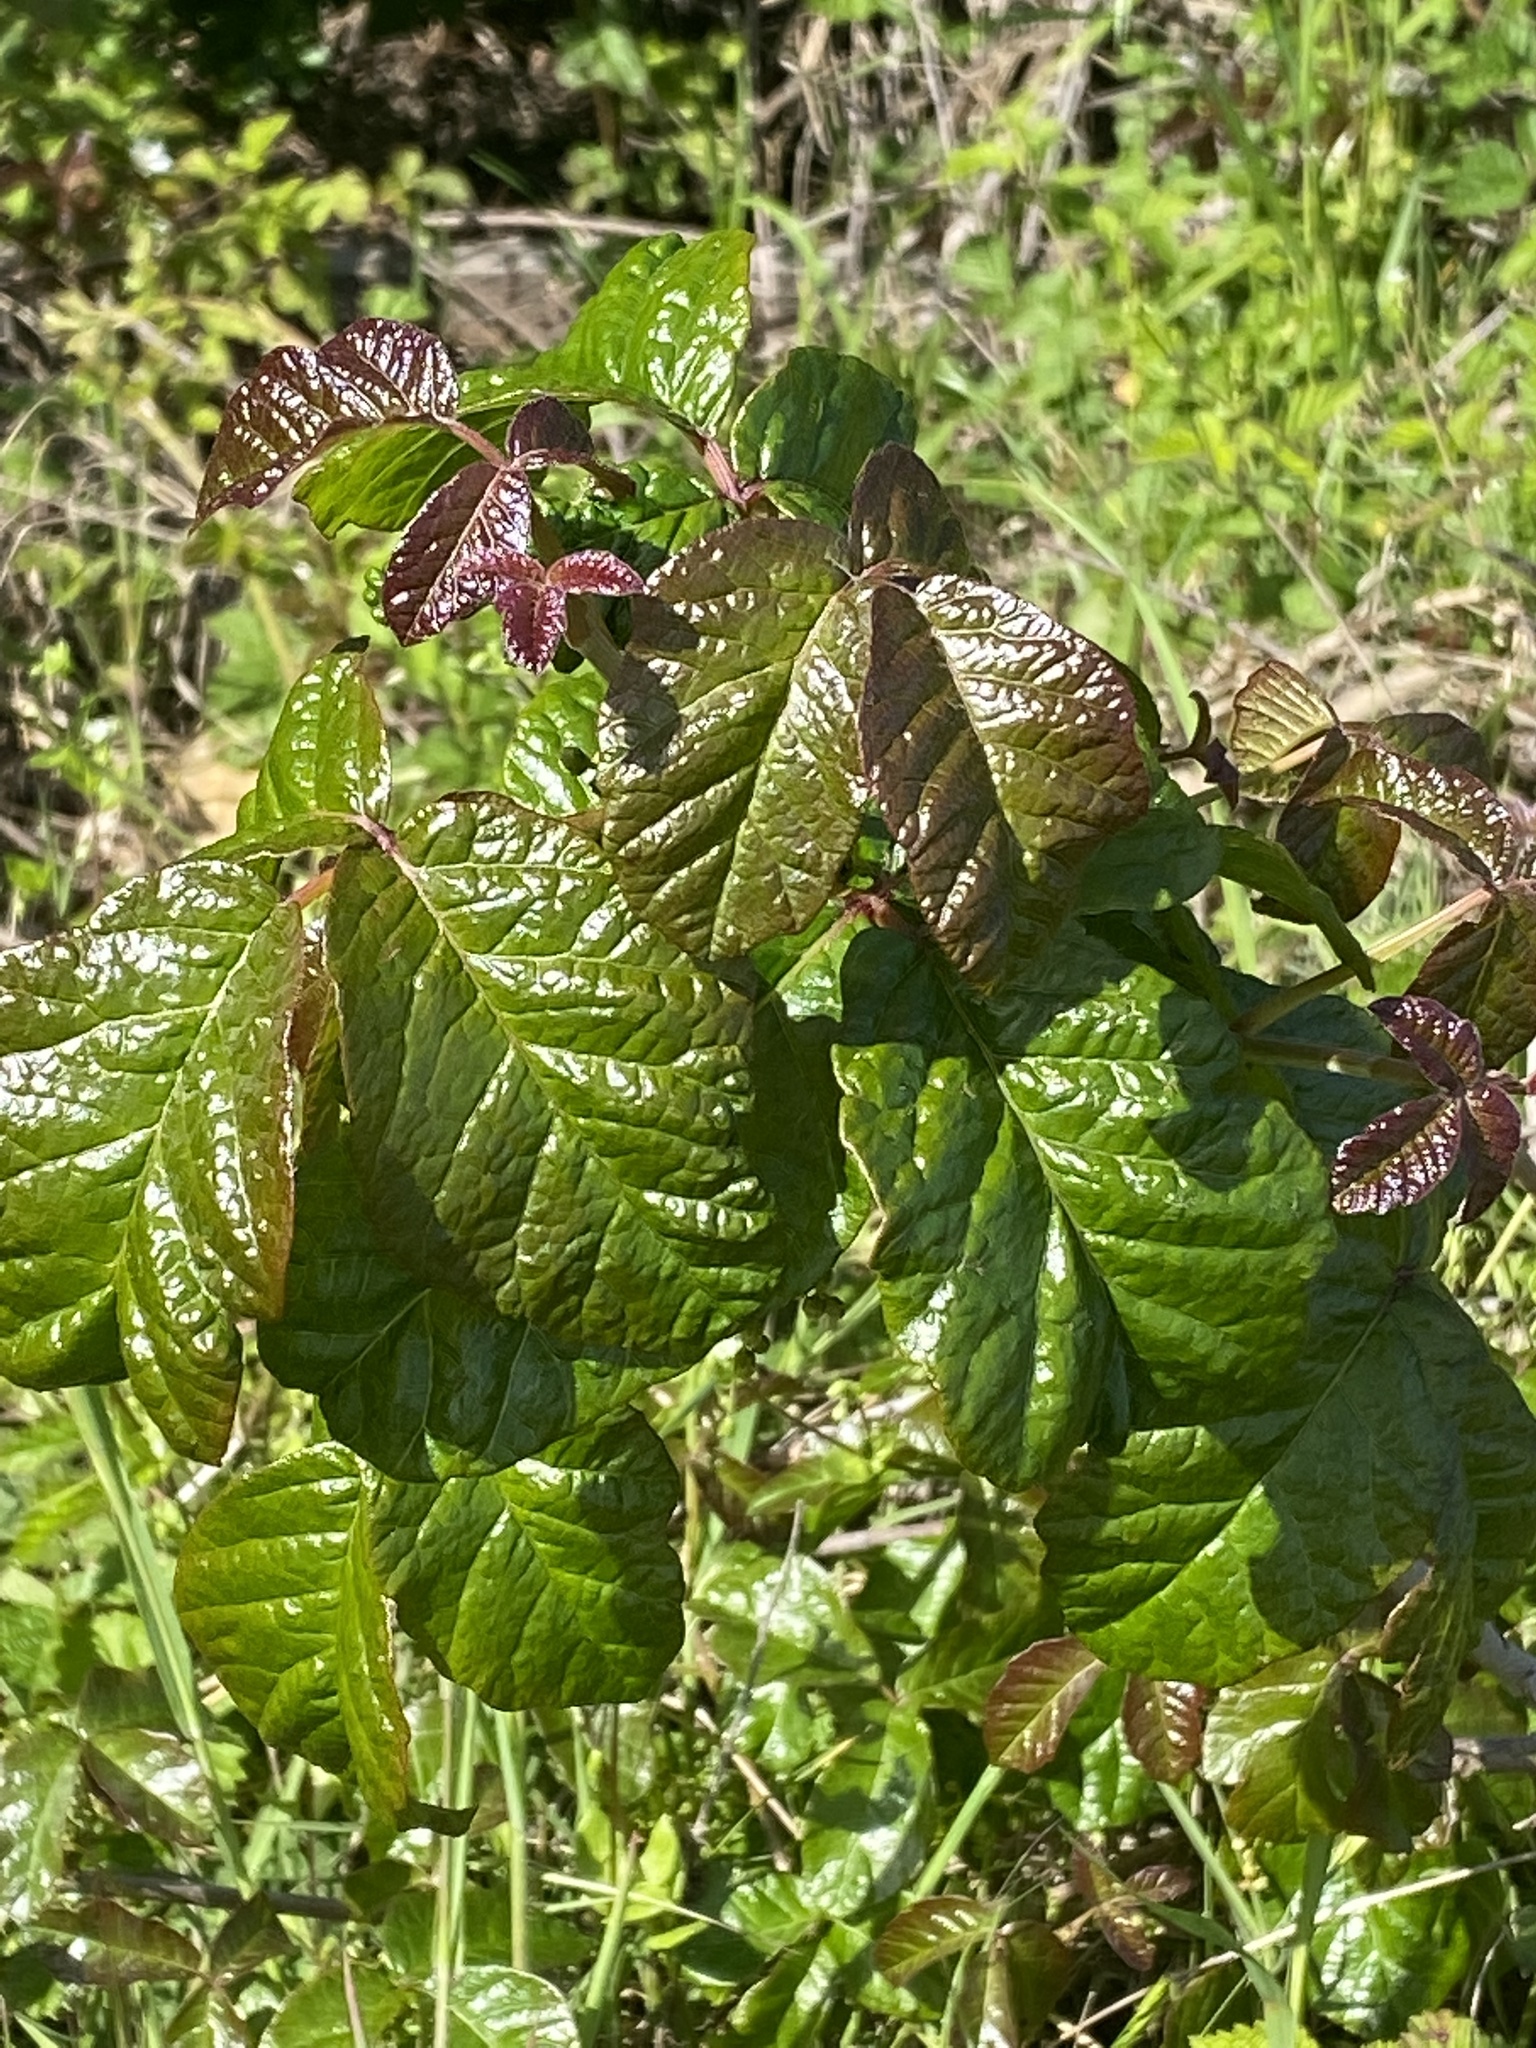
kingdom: Plantae
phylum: Tracheophyta
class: Magnoliopsida
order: Sapindales
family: Anacardiaceae
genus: Toxicodendron
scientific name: Toxicodendron diversilobum
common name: Pacific poison-oak
